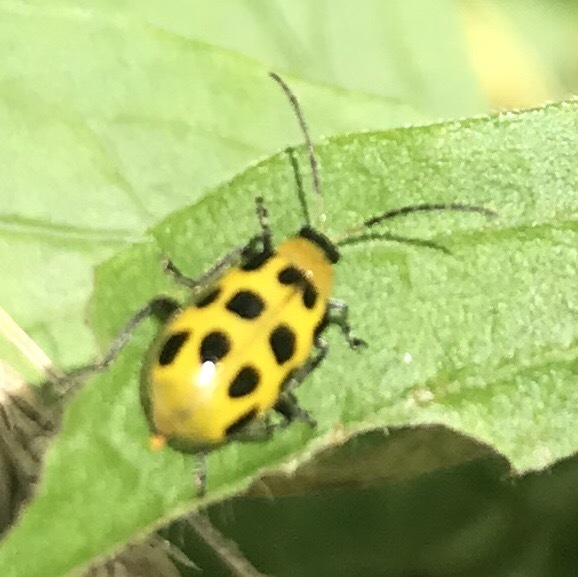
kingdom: Animalia
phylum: Arthropoda
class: Insecta
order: Coleoptera
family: Chrysomelidae
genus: Diabrotica
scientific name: Diabrotica undecimpunctata
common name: Spotted cucumber beetle
